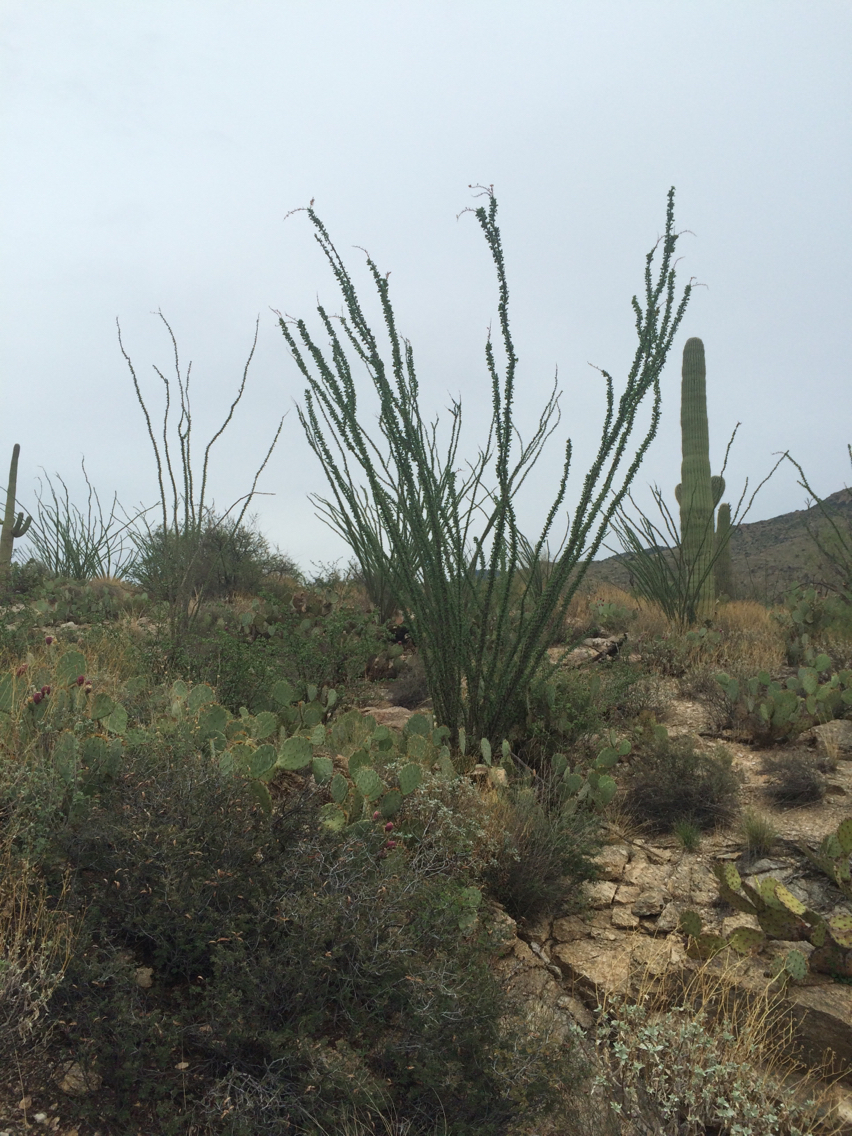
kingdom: Plantae
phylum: Tracheophyta
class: Magnoliopsida
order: Ericales
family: Fouquieriaceae
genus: Fouquieria
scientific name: Fouquieria splendens
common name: Vine-cactus
